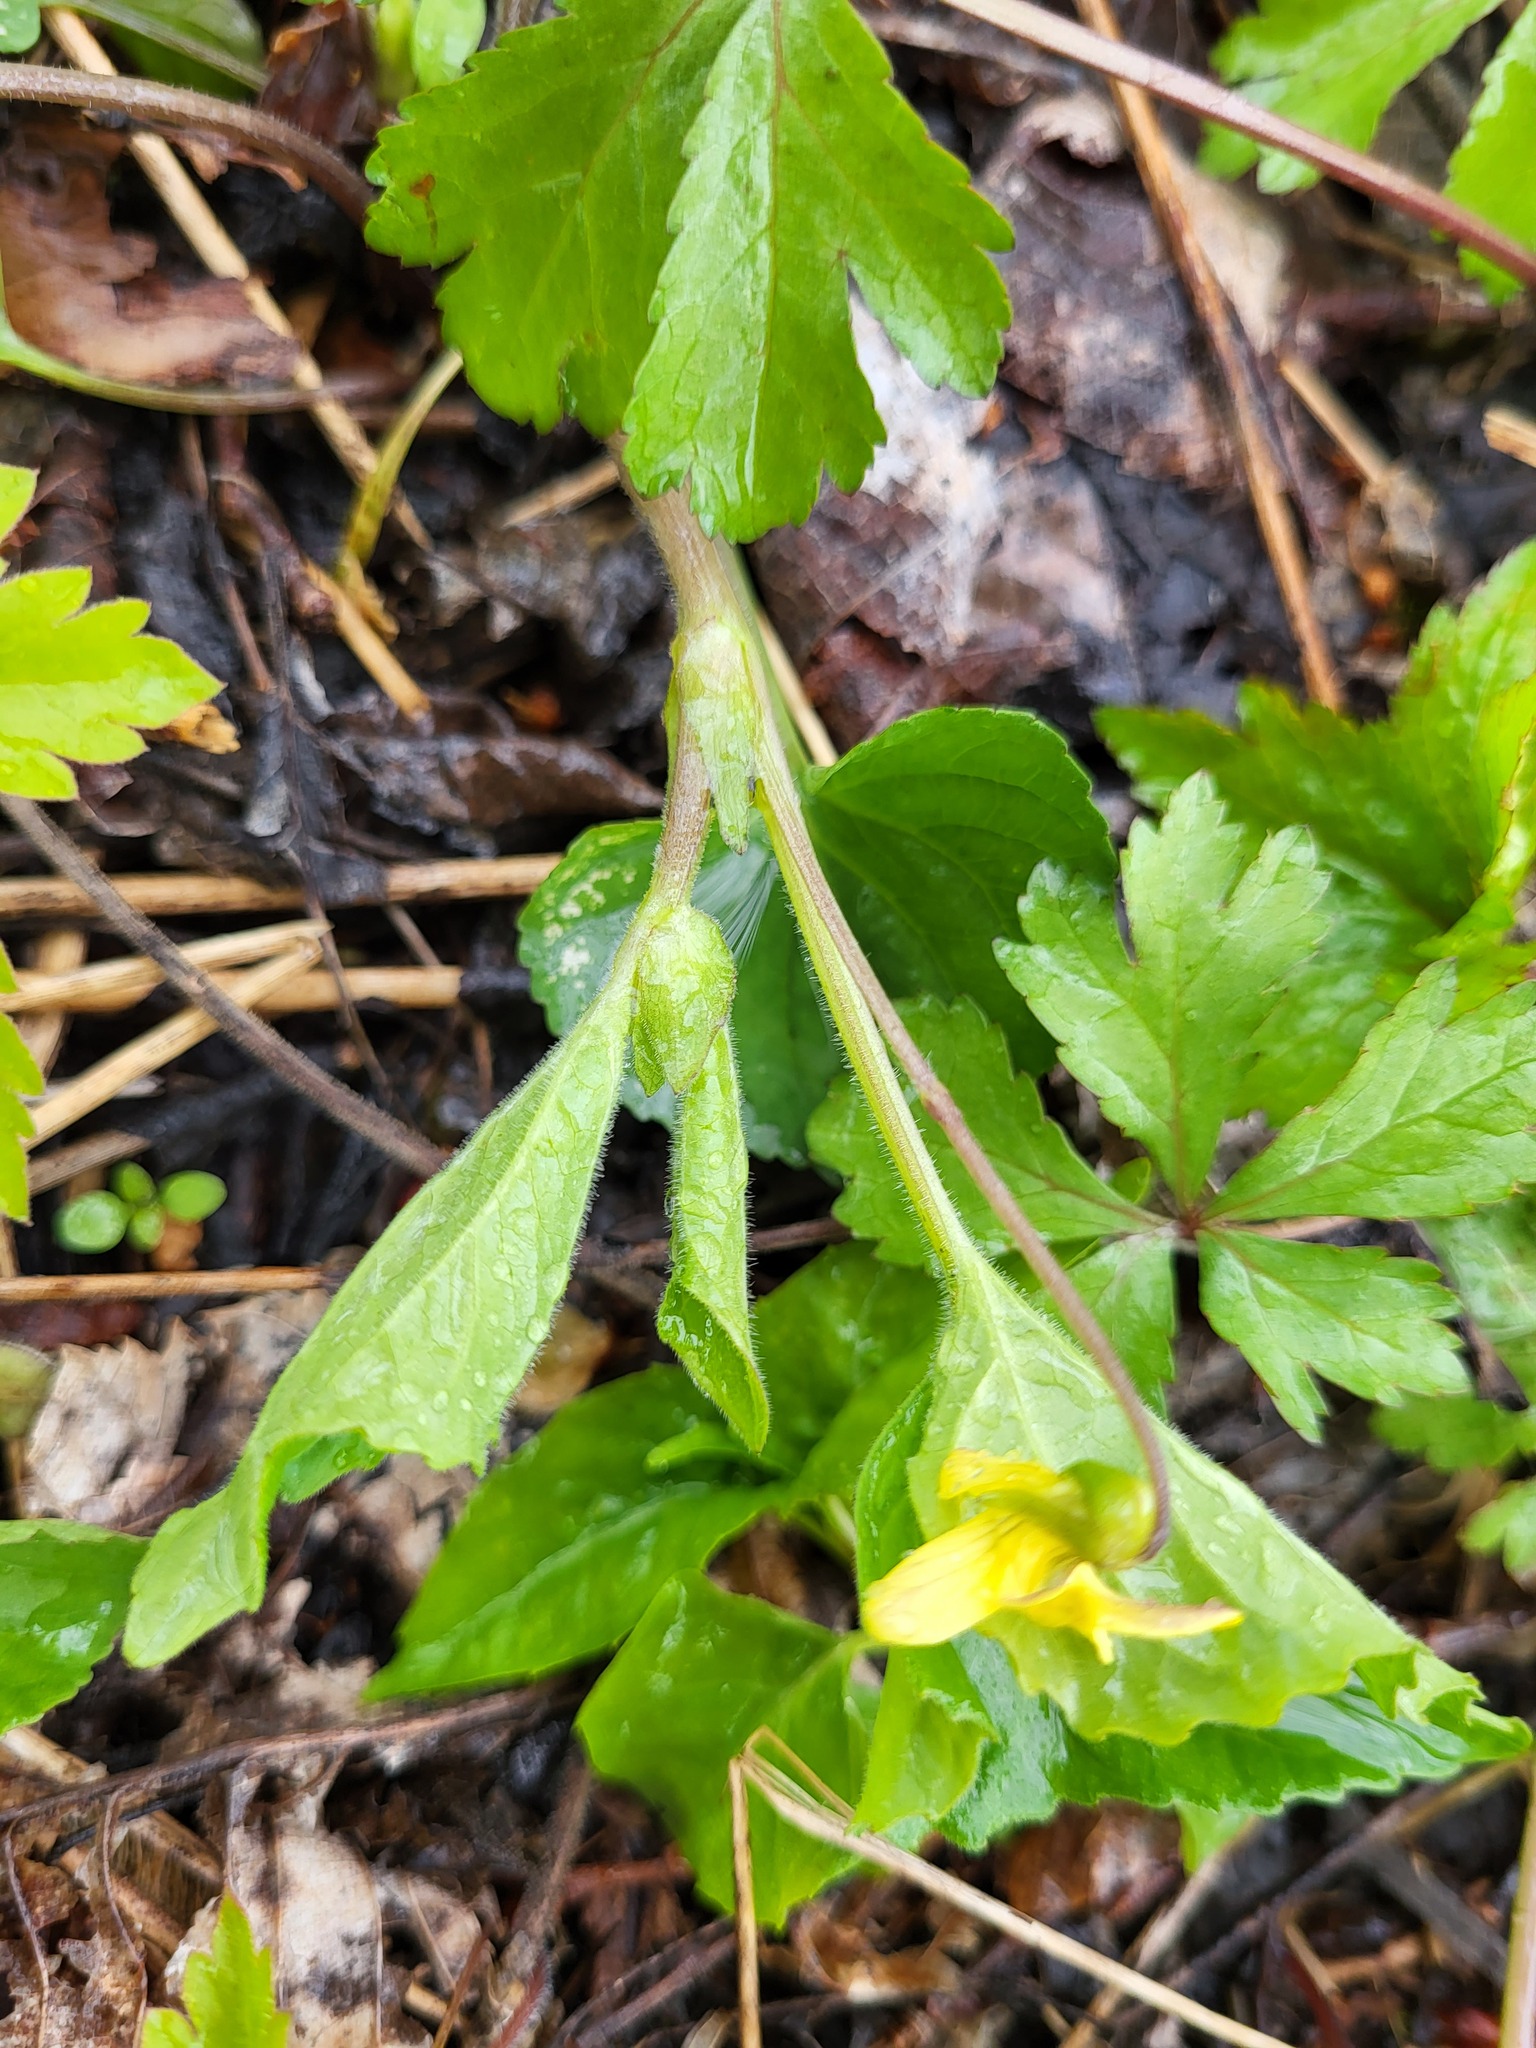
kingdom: Plantae
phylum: Tracheophyta
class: Magnoliopsida
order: Malpighiales
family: Violaceae
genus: Viola
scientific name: Viola eriocarpa
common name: Smooth yellow violet
